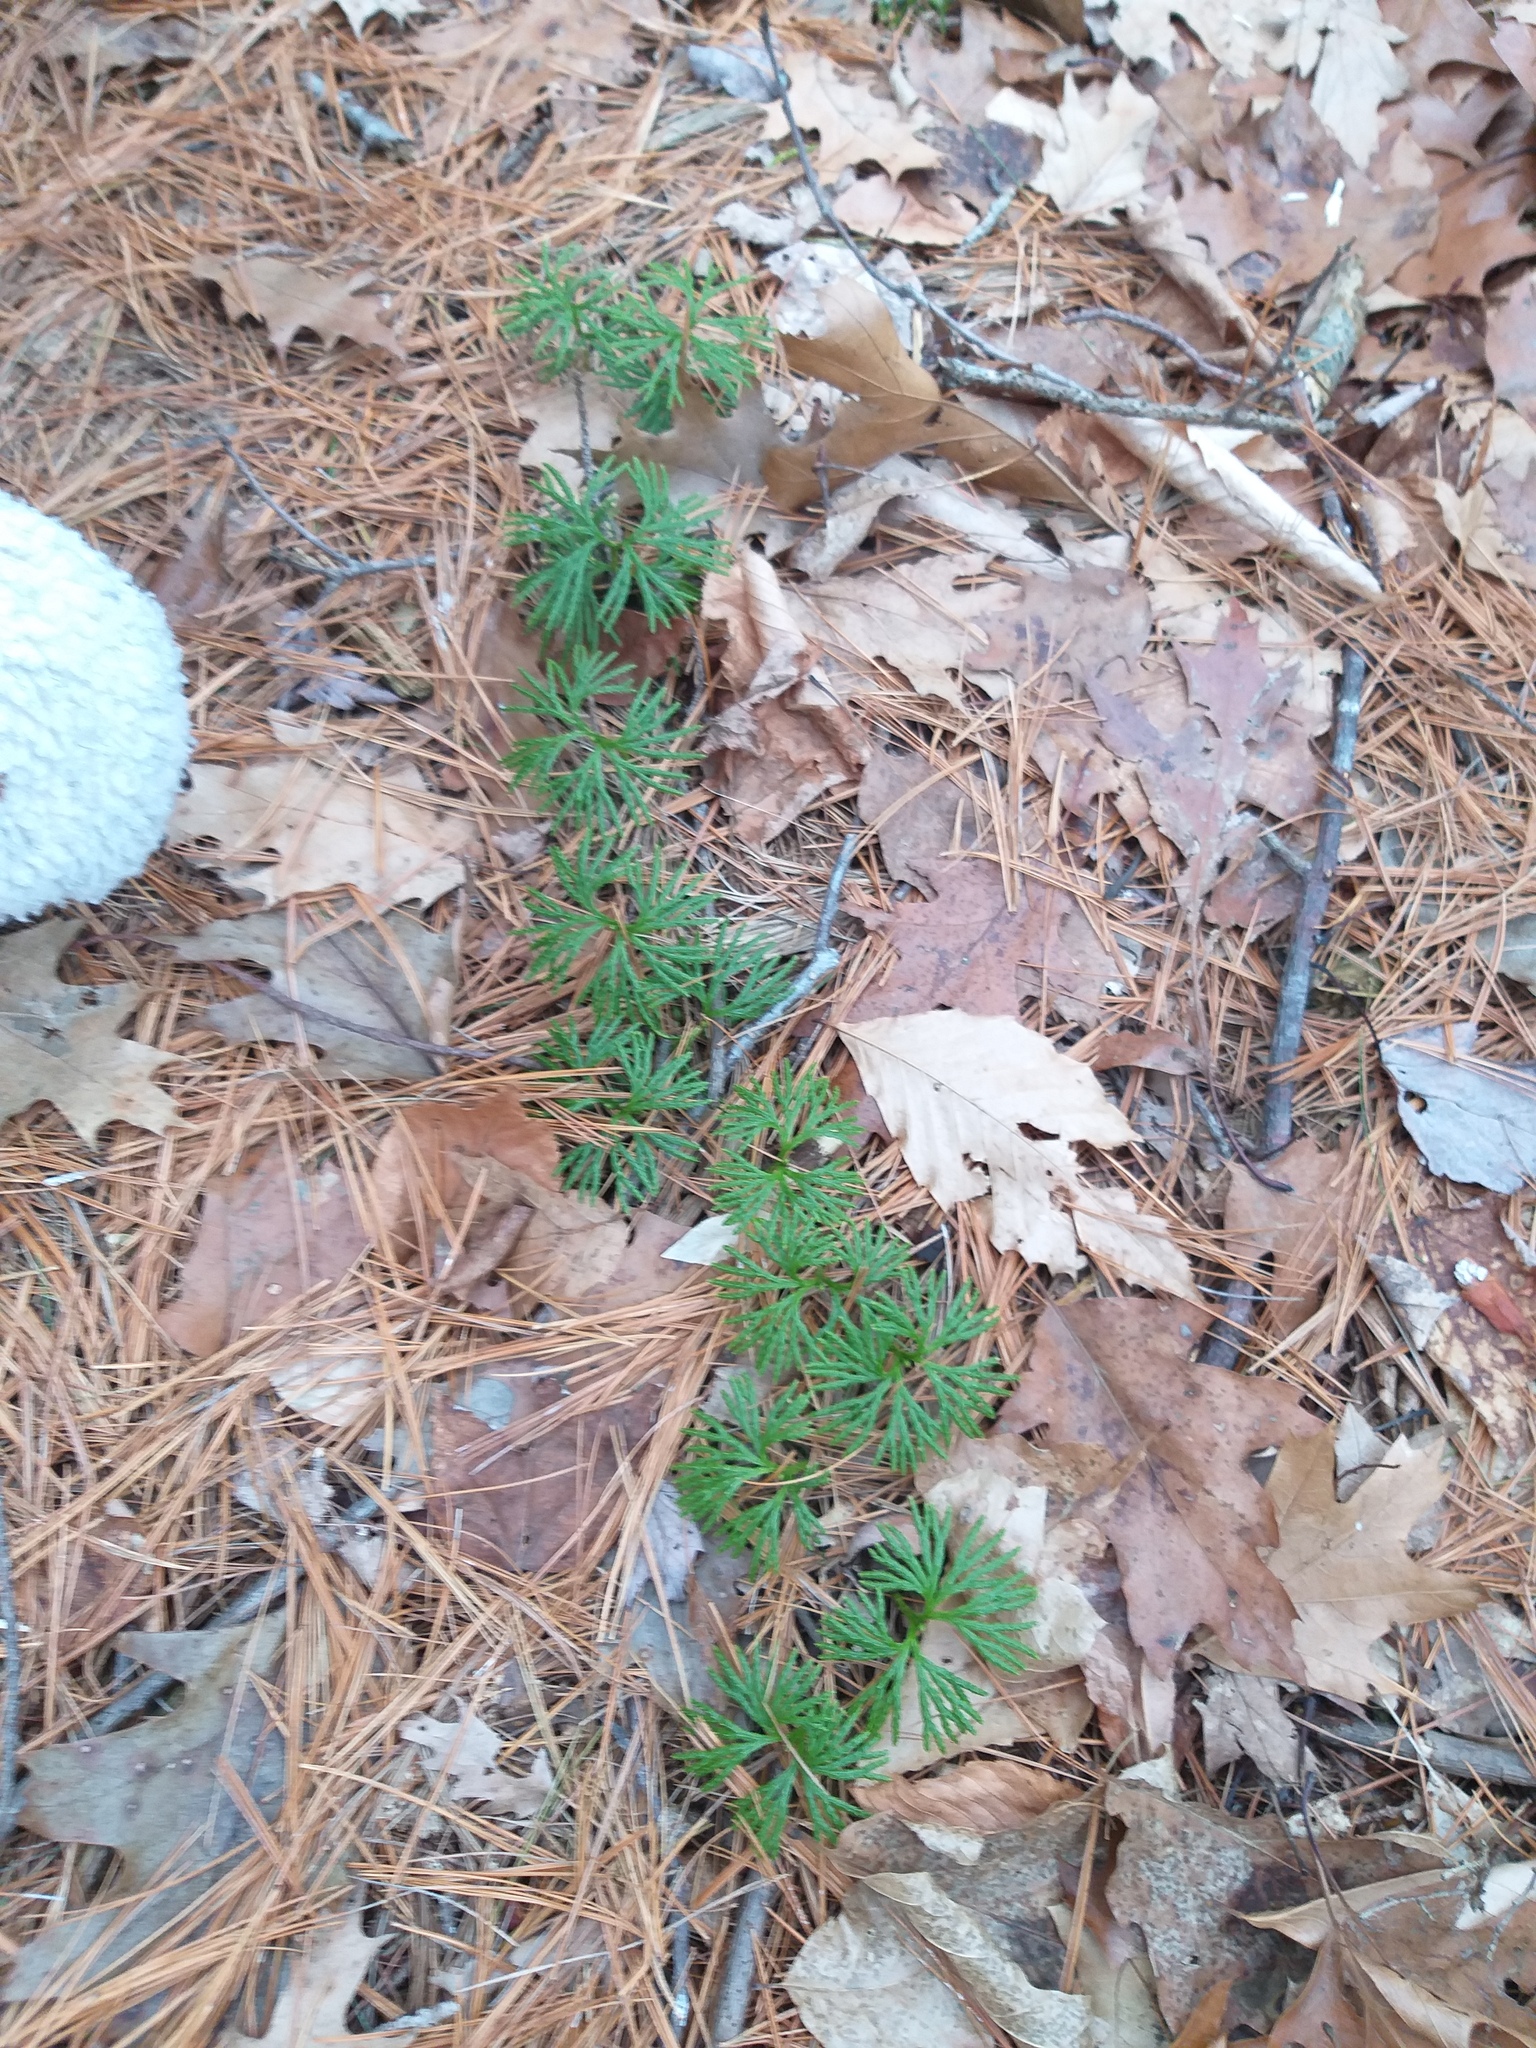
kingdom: Plantae
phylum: Tracheophyta
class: Lycopodiopsida
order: Lycopodiales
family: Lycopodiaceae
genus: Diphasiastrum
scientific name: Diphasiastrum digitatum
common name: Southern running-pine
